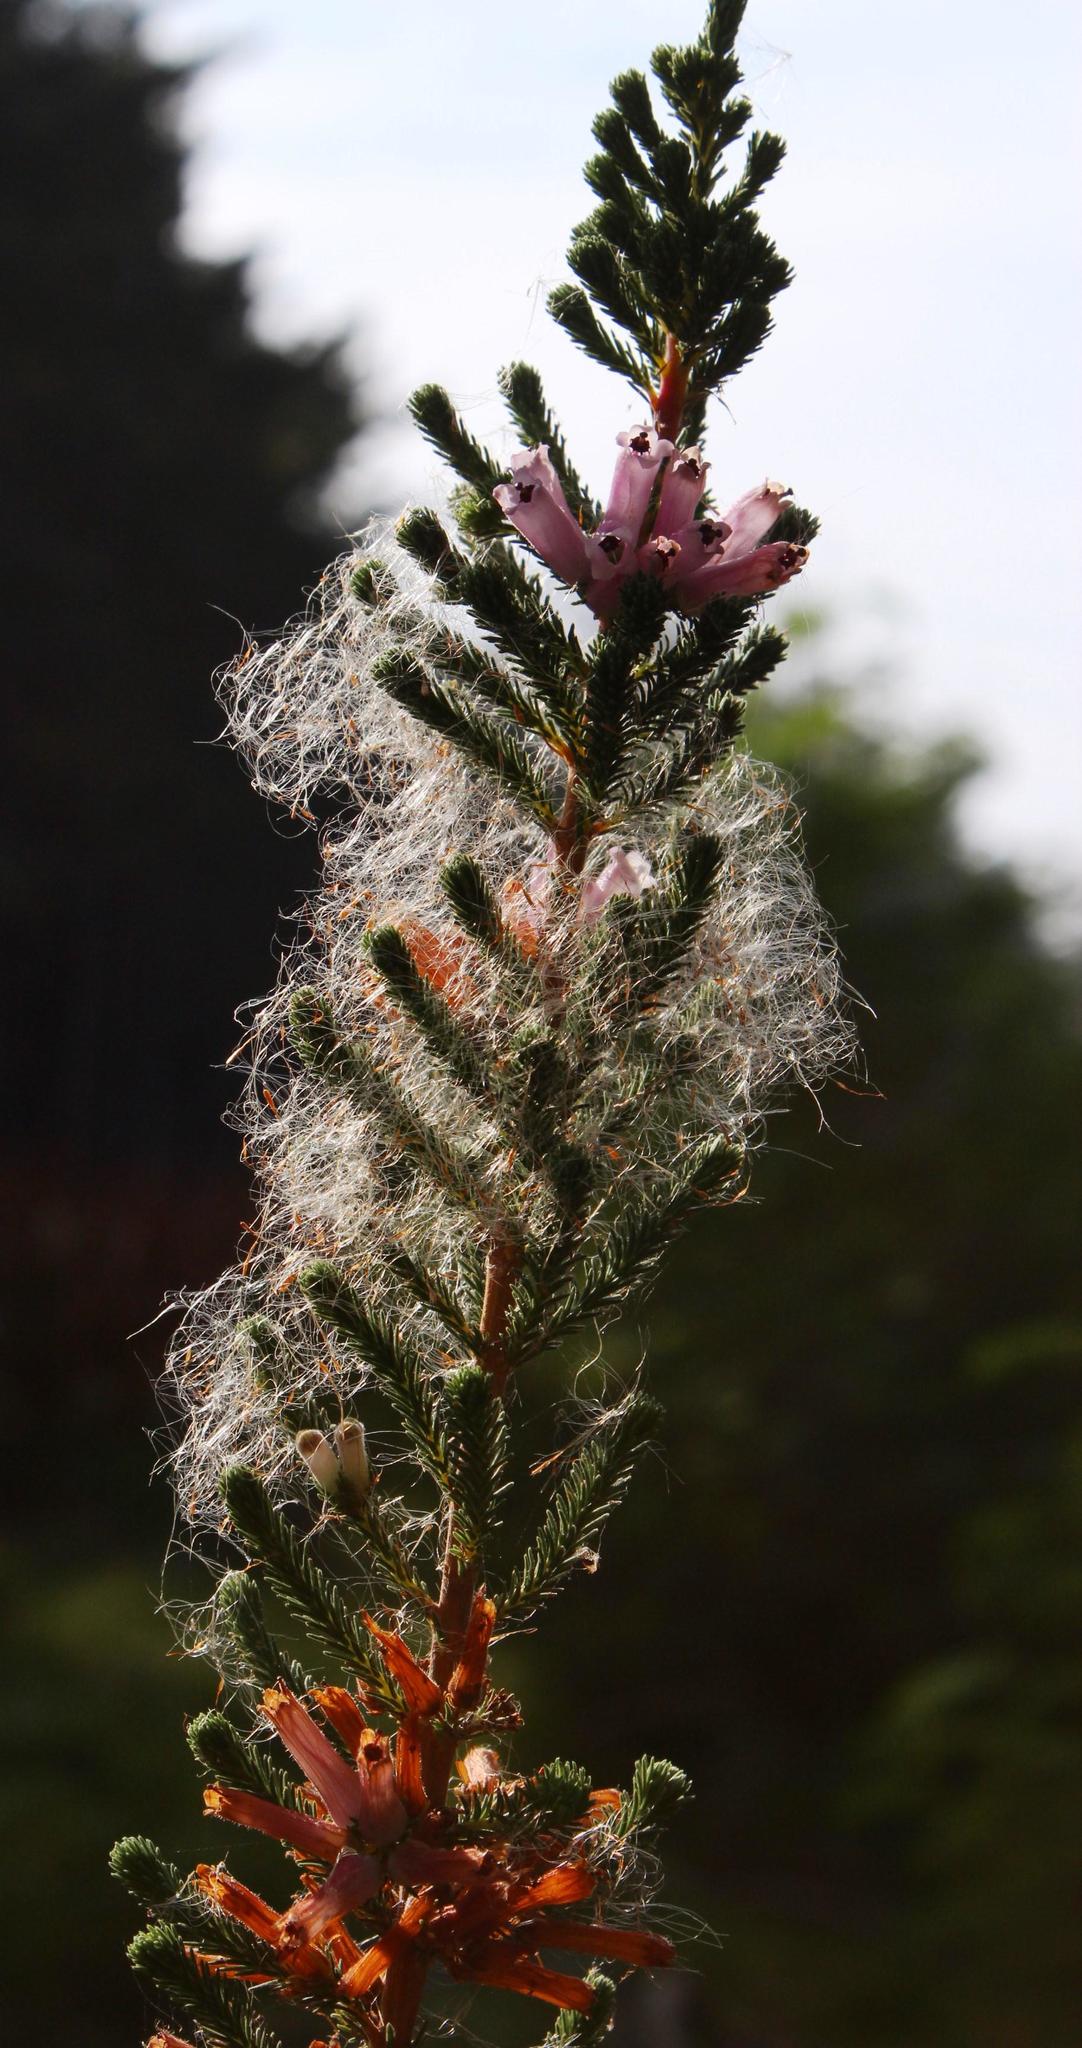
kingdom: Plantae
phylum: Tracheophyta
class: Liliopsida
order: Poales
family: Typhaceae
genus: Typha
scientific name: Typha capensis
